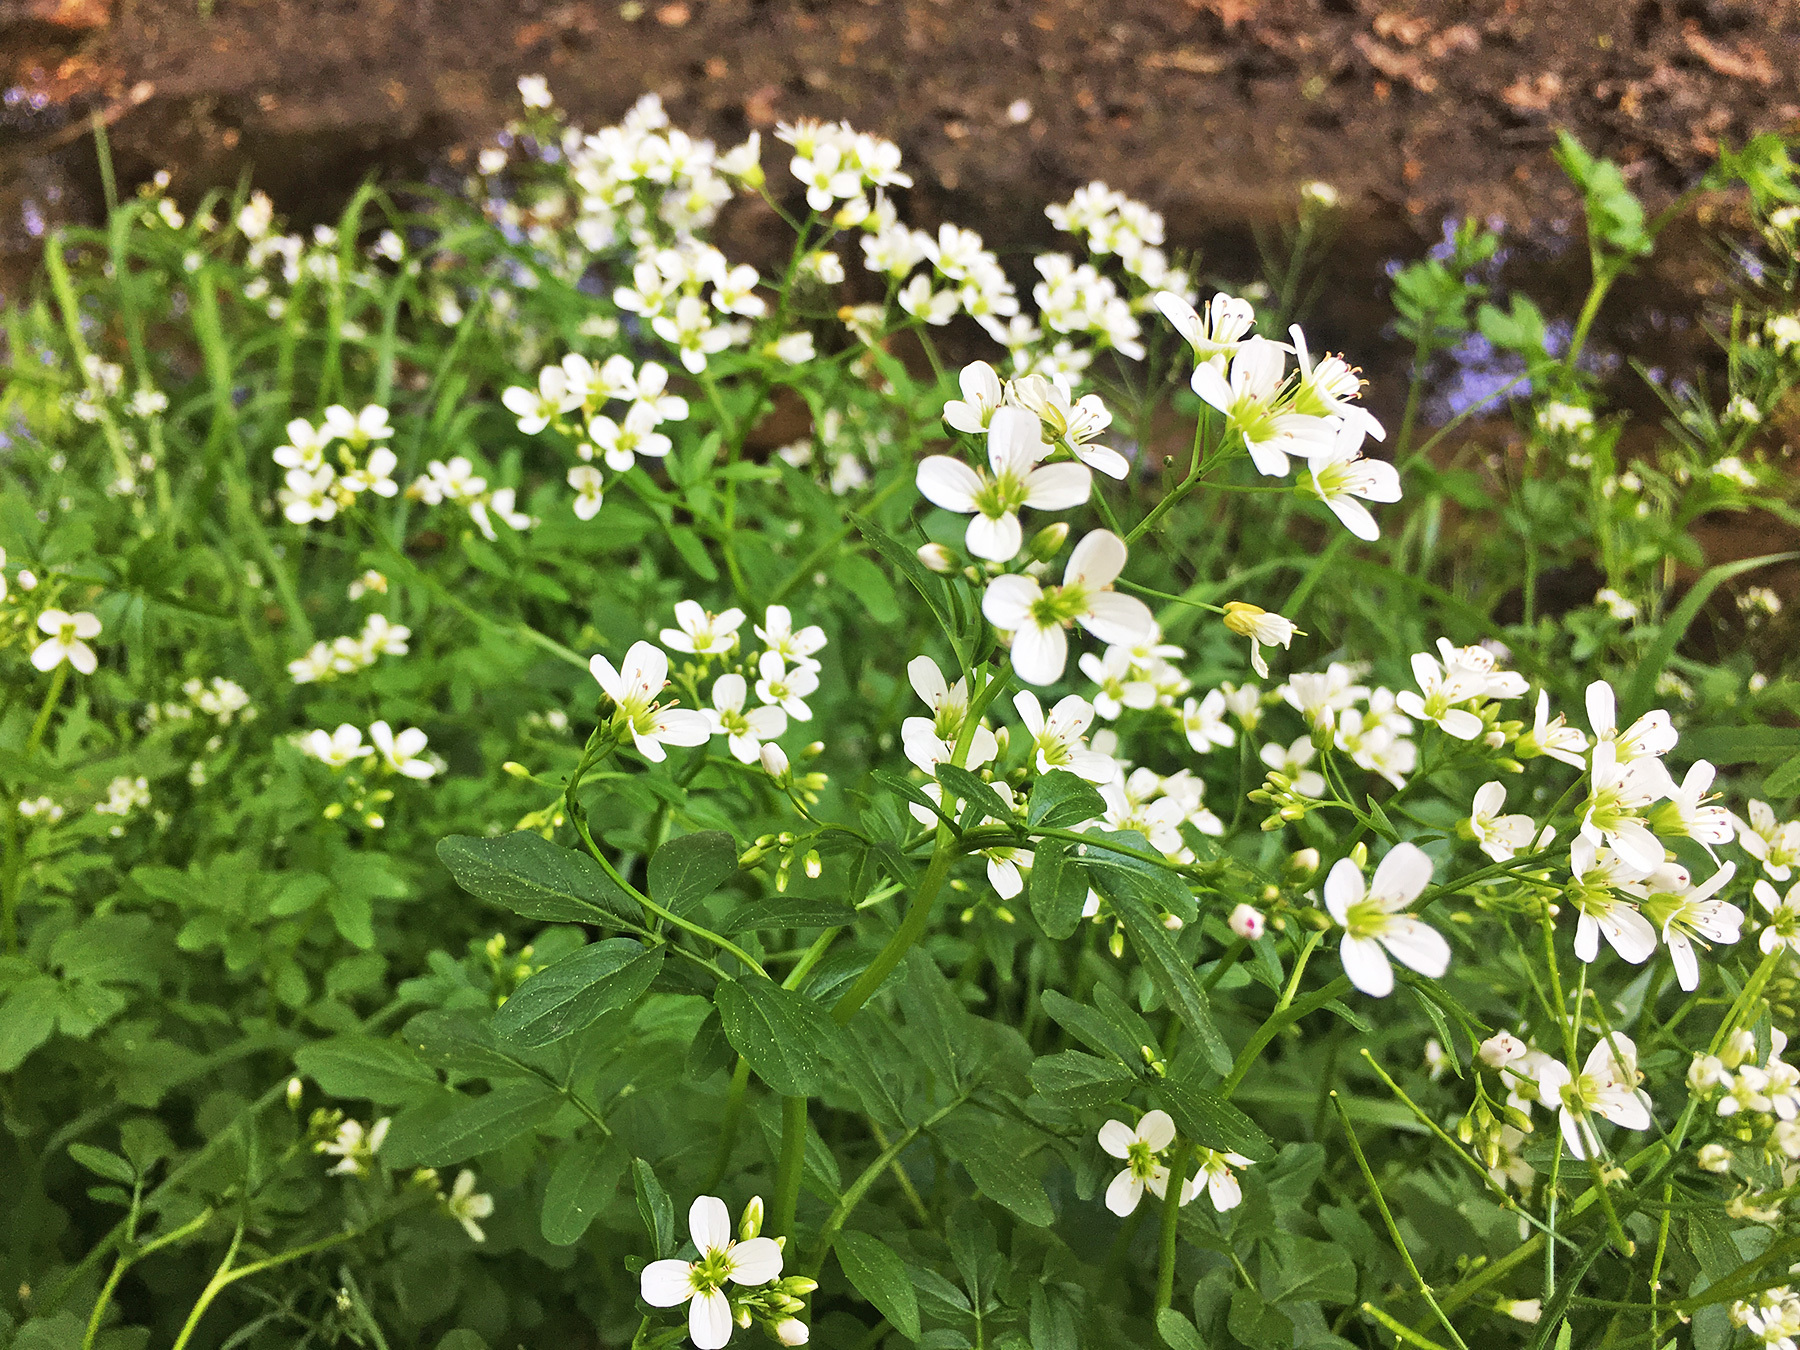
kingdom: Plantae
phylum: Tracheophyta
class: Magnoliopsida
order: Brassicales
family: Brassicaceae
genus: Cardamine
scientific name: Cardamine amara
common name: Large bitter-cress
